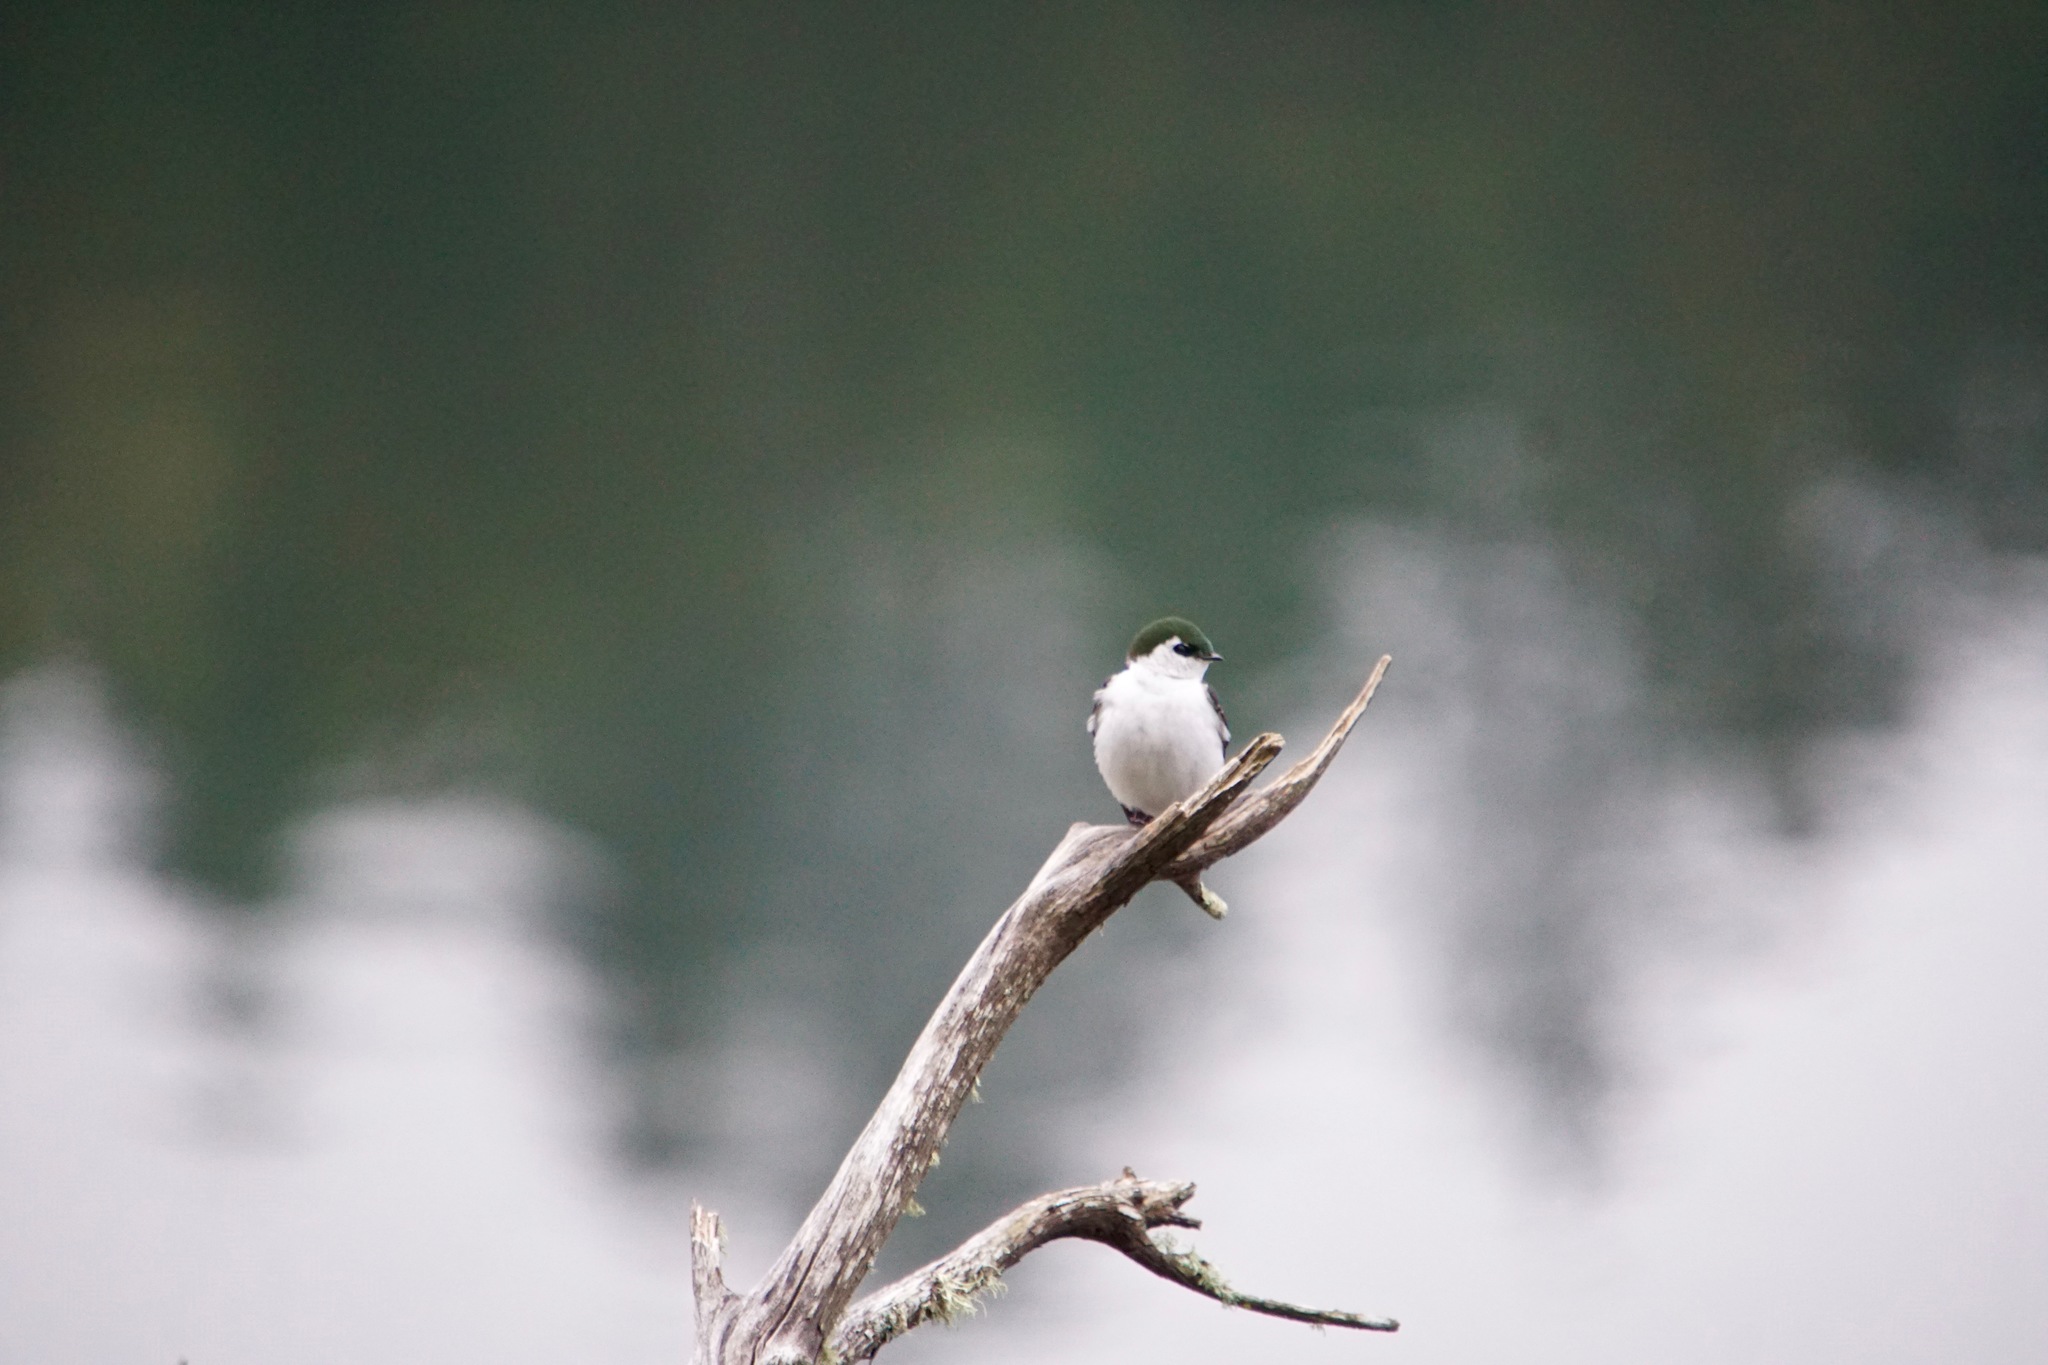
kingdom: Animalia
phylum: Chordata
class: Aves
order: Passeriformes
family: Hirundinidae
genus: Tachycineta
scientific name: Tachycineta thalassina
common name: Violet-green swallow
